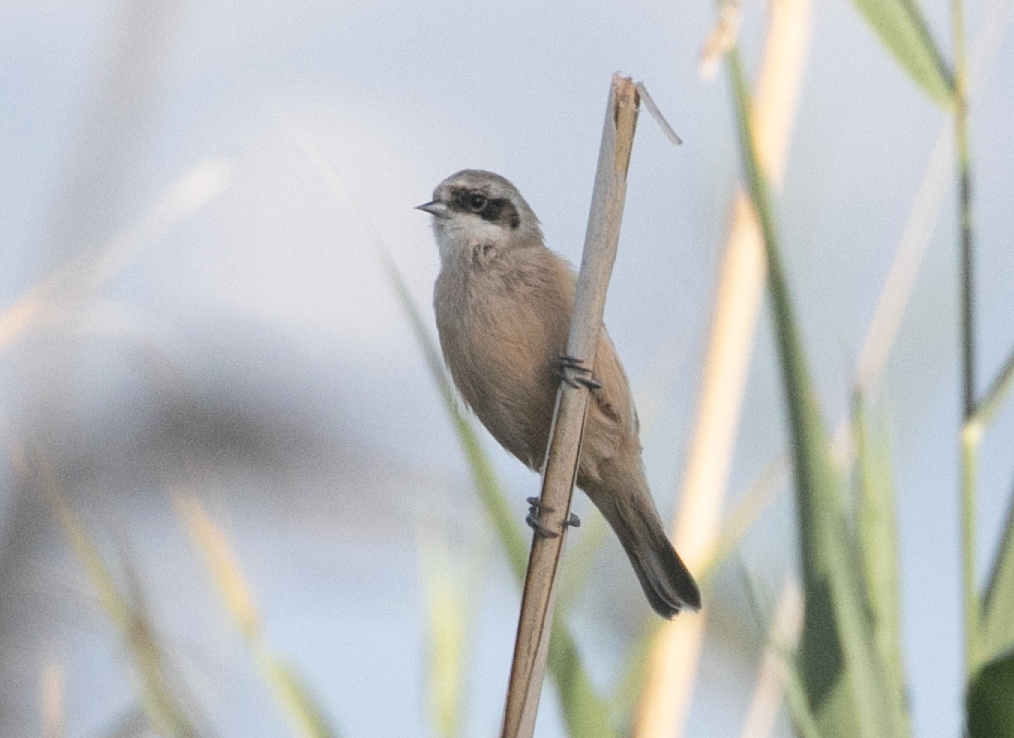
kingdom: Animalia
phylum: Chordata
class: Aves
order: Passeriformes
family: Remizidae
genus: Remiz
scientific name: Remiz pendulinus
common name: Eurasian penduline tit
